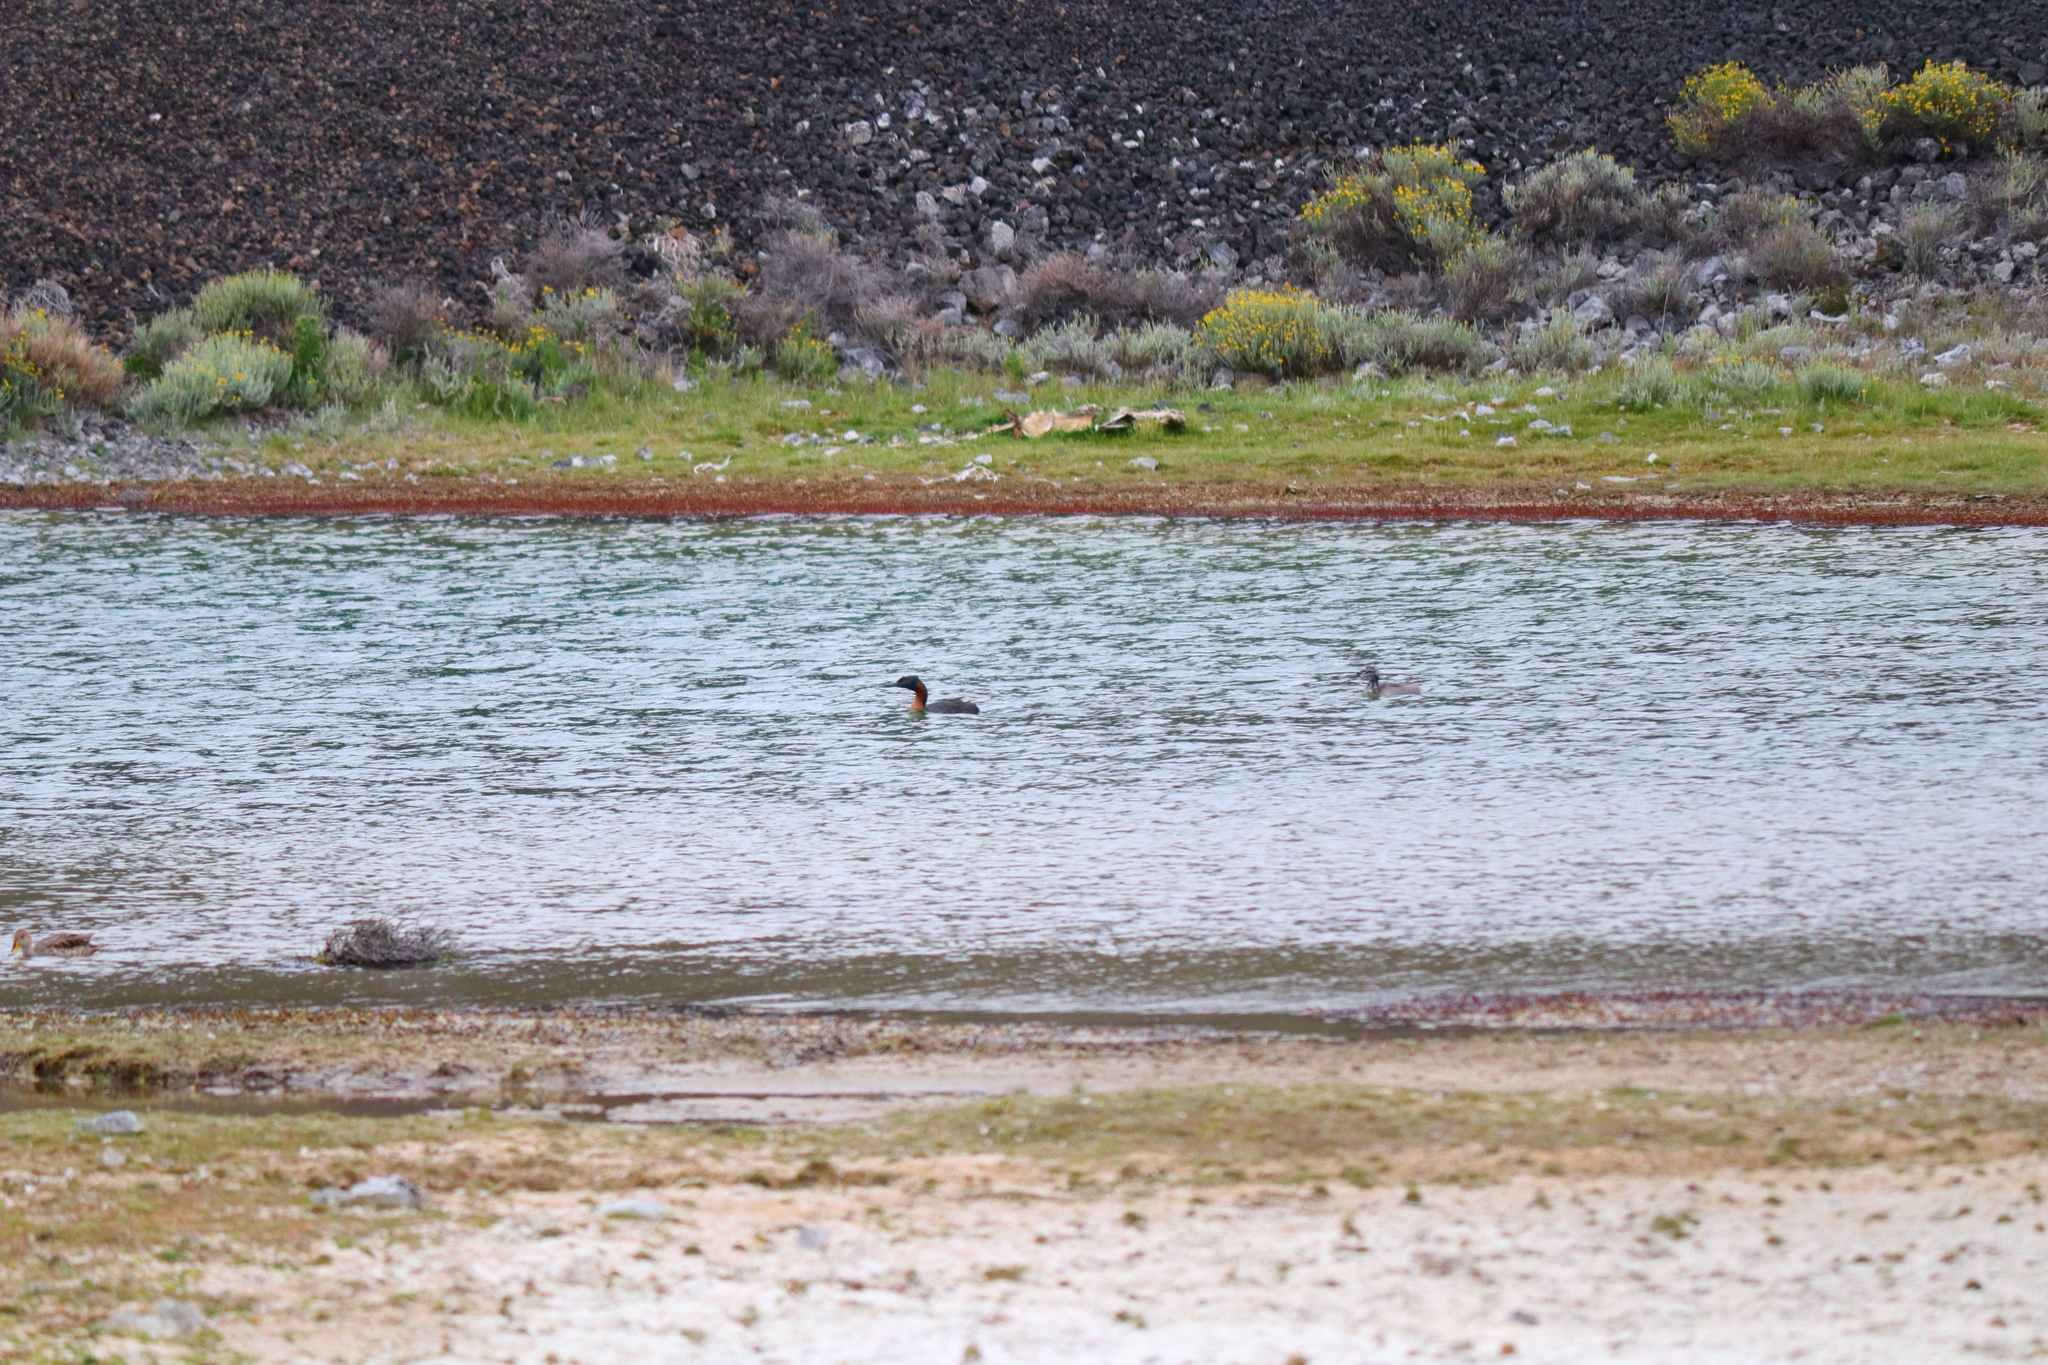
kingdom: Animalia
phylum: Chordata
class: Aves
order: Podicipediformes
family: Podicipedidae
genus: Podiceps
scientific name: Podiceps major
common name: Great grebe
